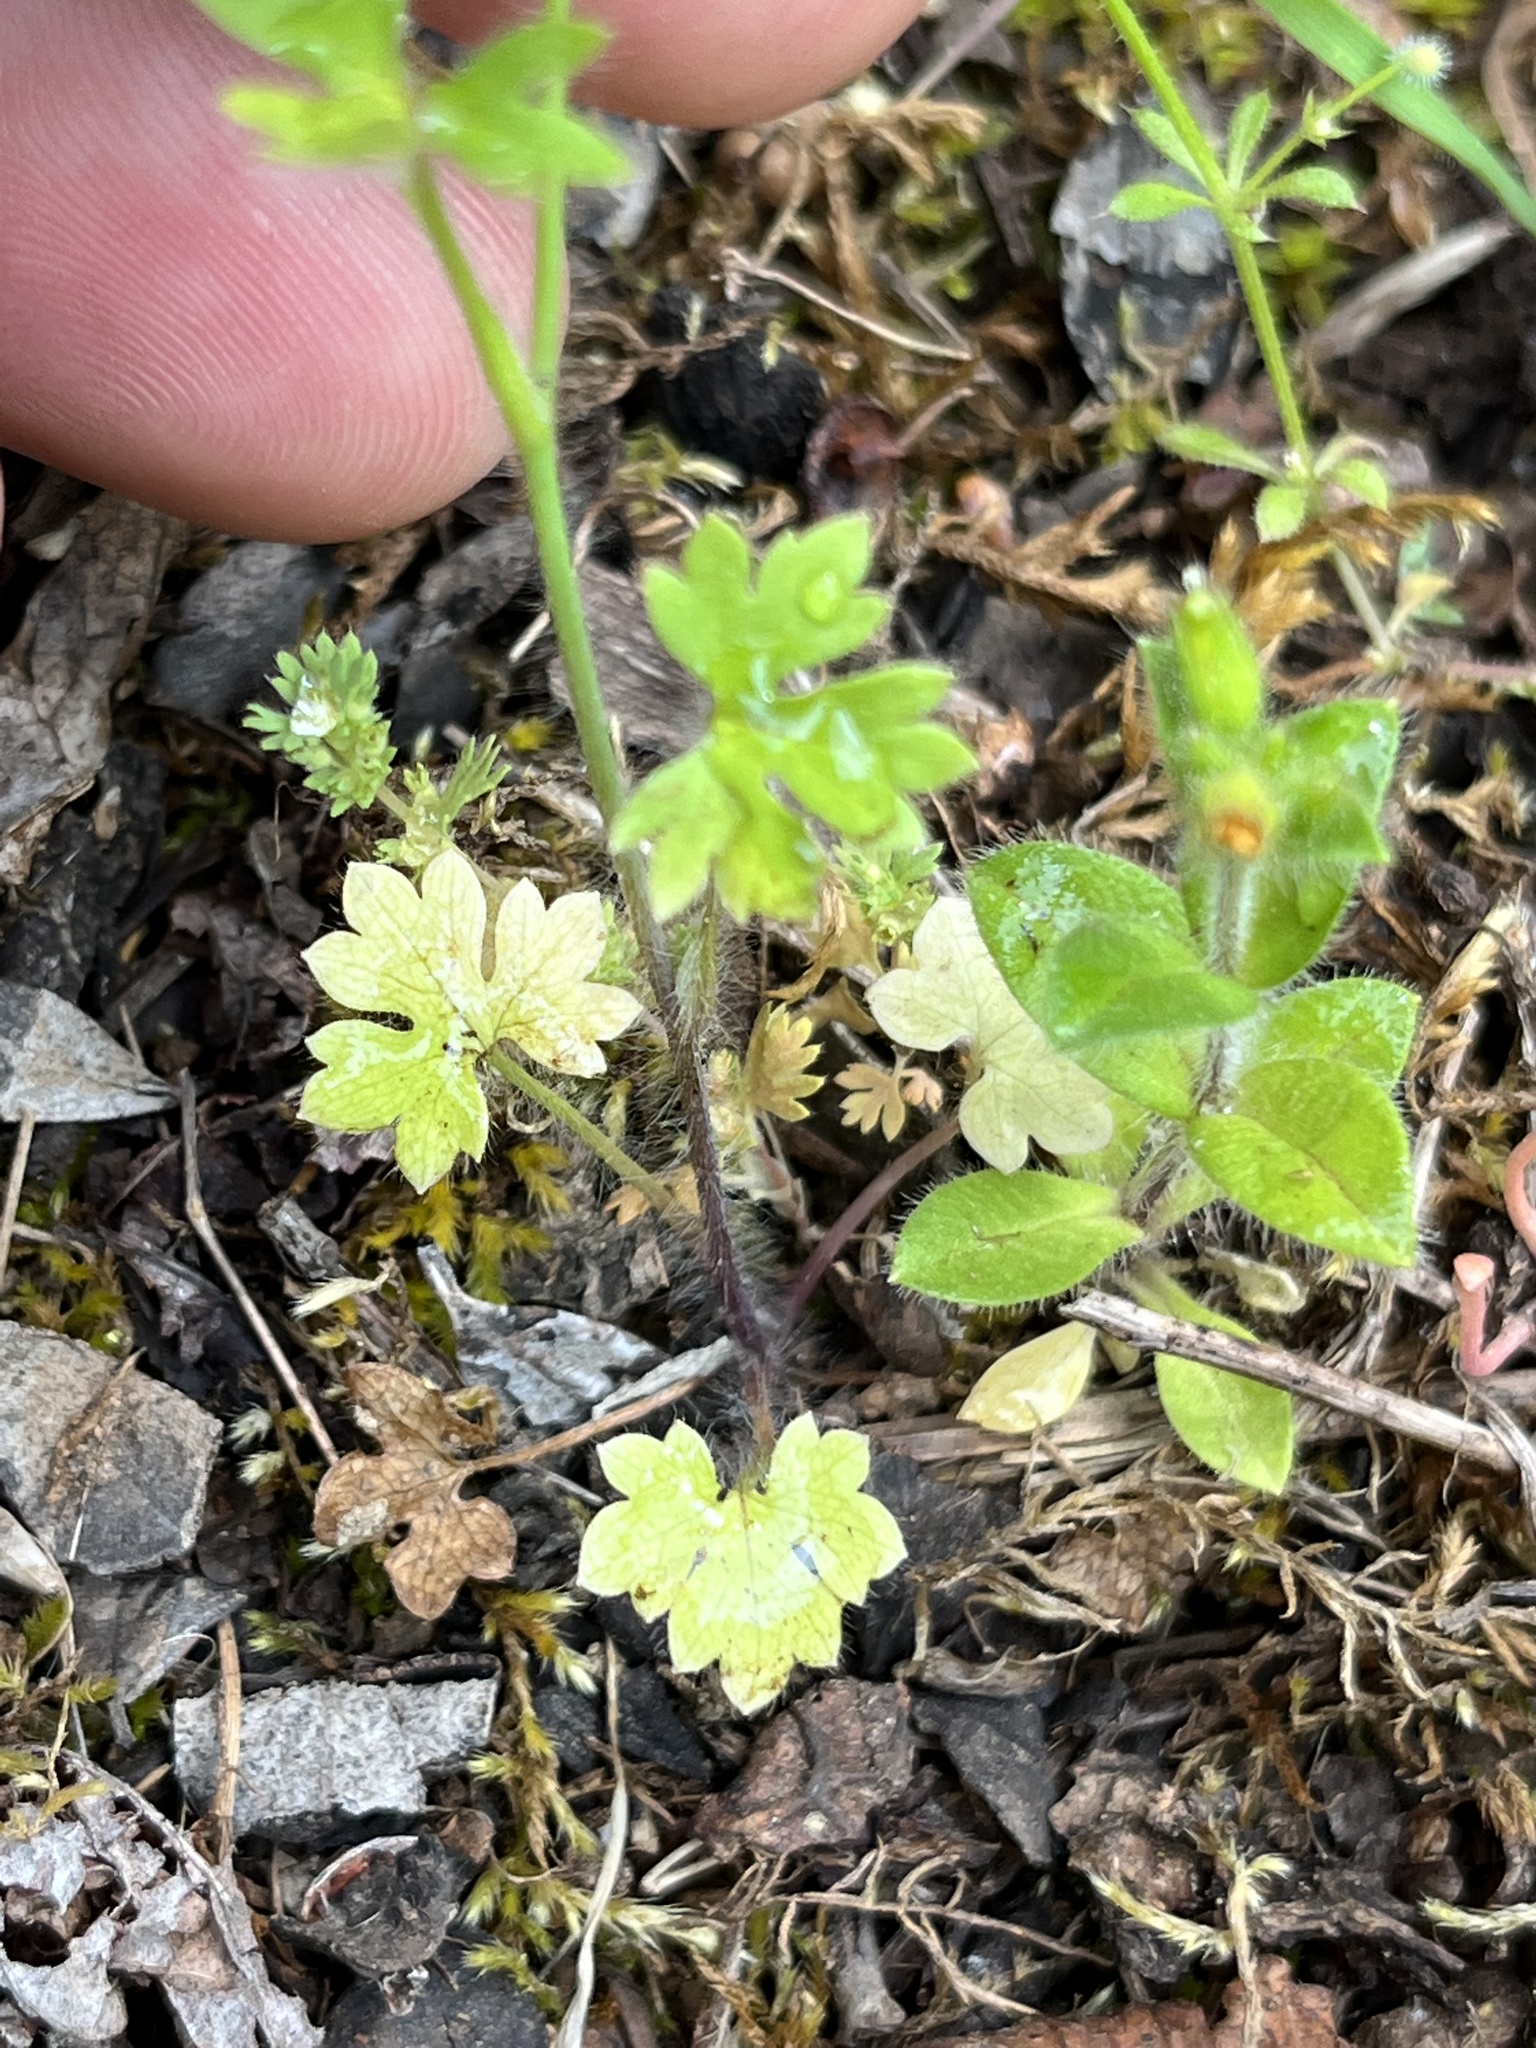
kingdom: Plantae
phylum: Tracheophyta
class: Magnoliopsida
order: Ranunculales
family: Ranunculaceae
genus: Ranunculus
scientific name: Ranunculus hebecarpus
